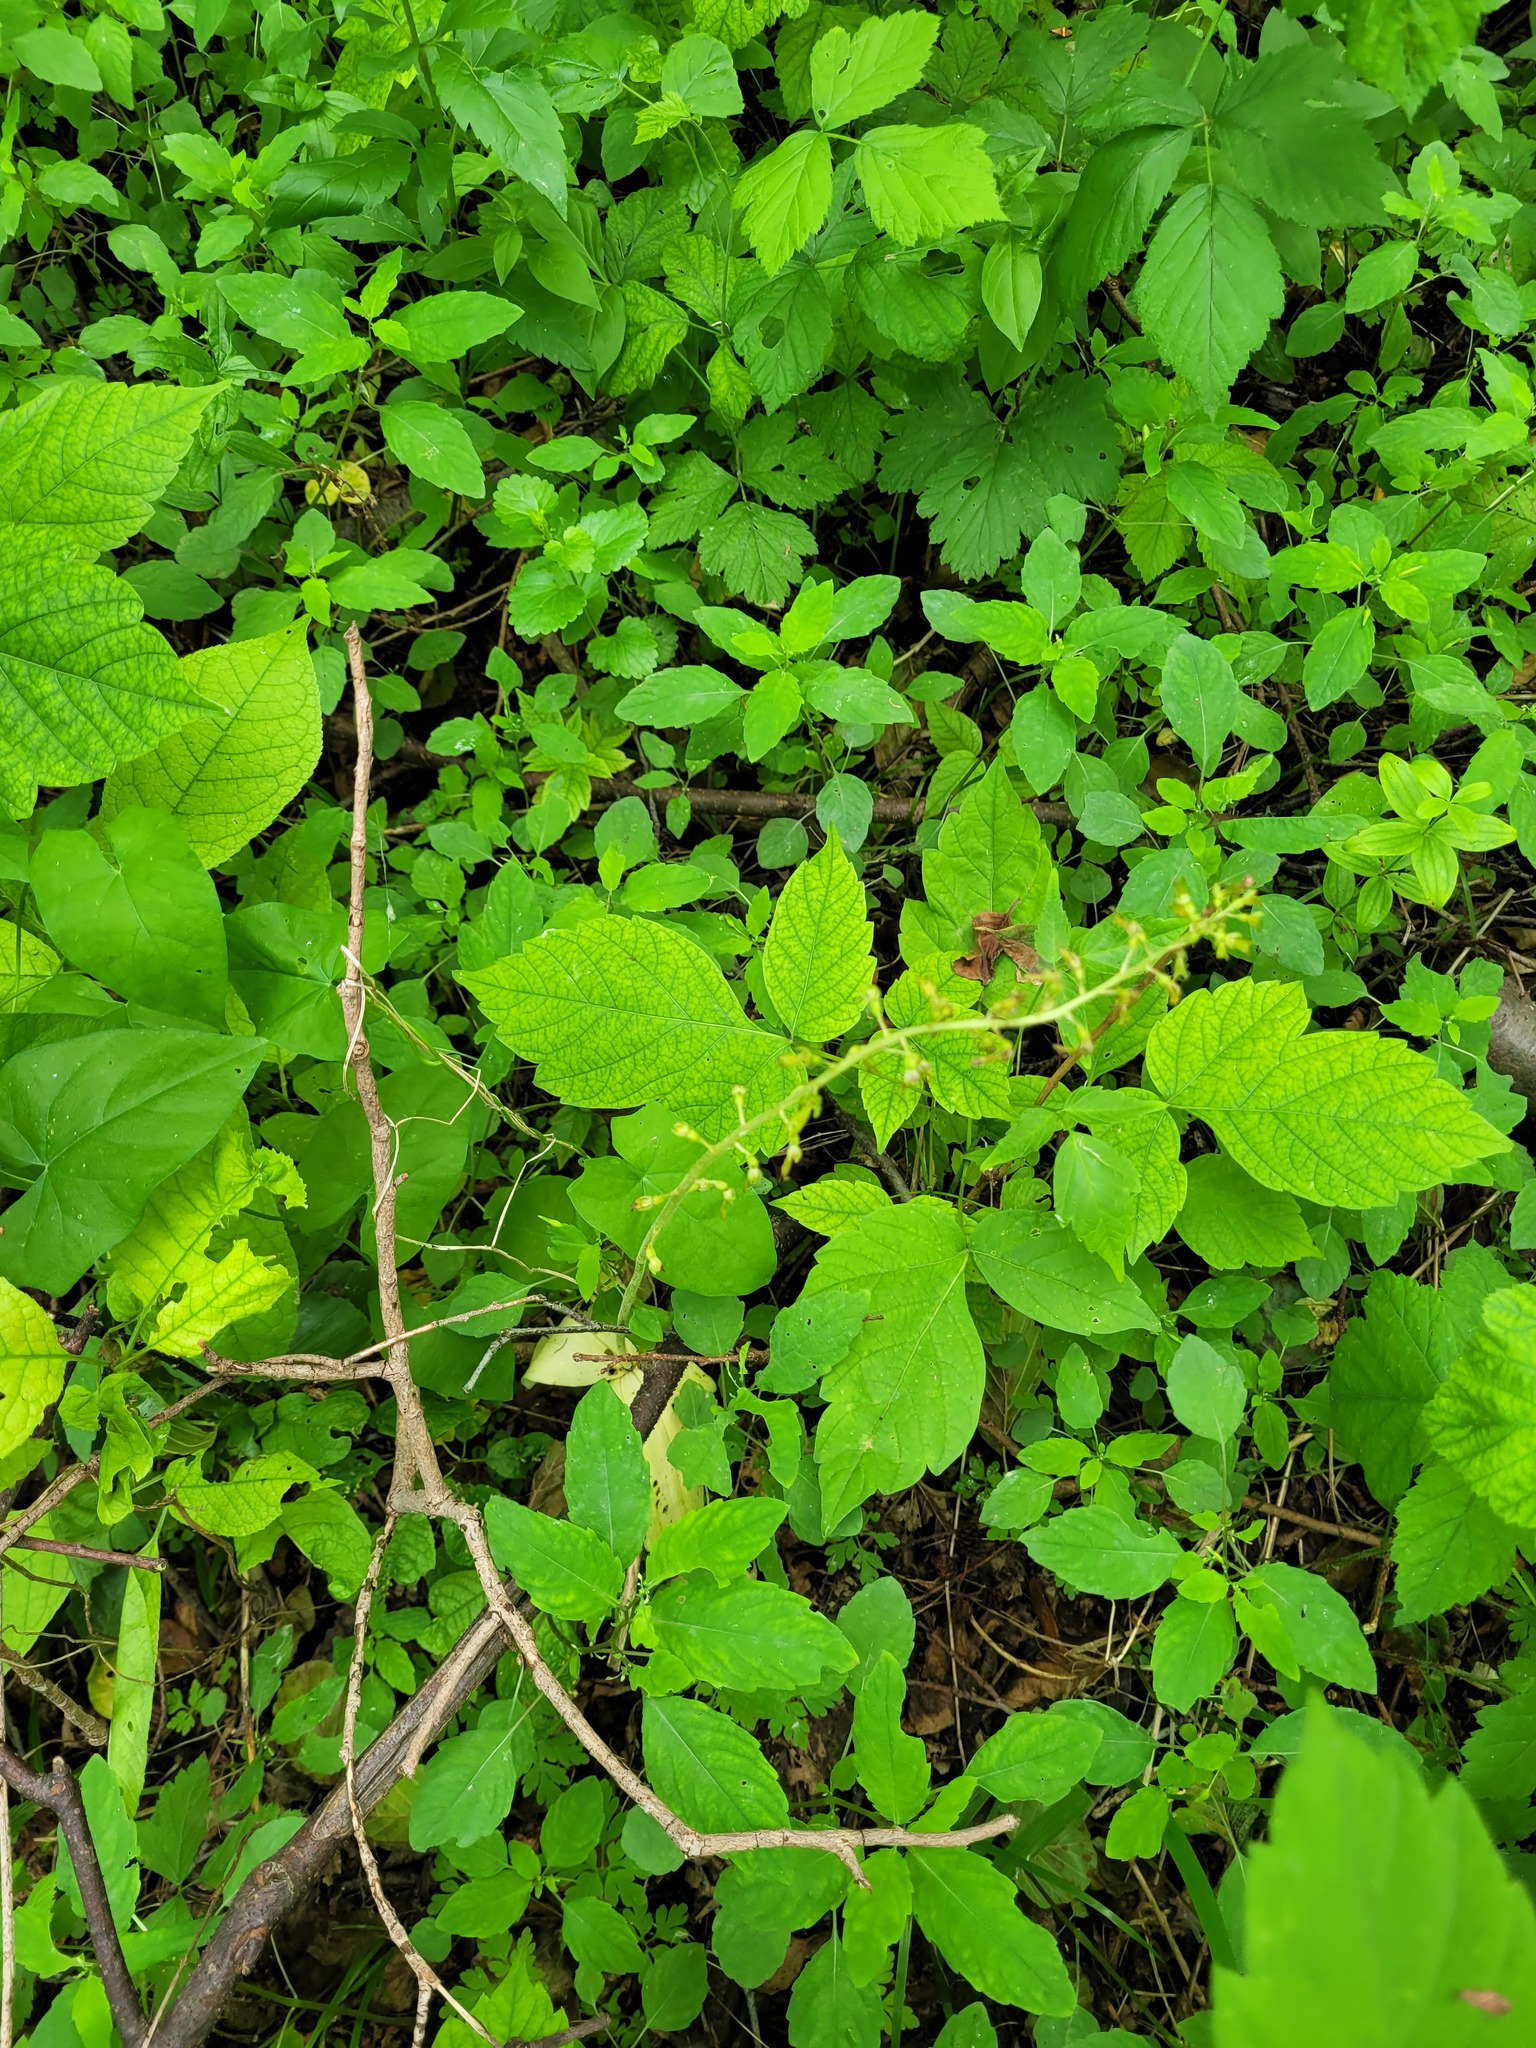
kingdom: Plantae
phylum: Tracheophyta
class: Liliopsida
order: Asparagales
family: Orchidaceae
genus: Neottia
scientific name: Neottia ovata
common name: Common twayblade
